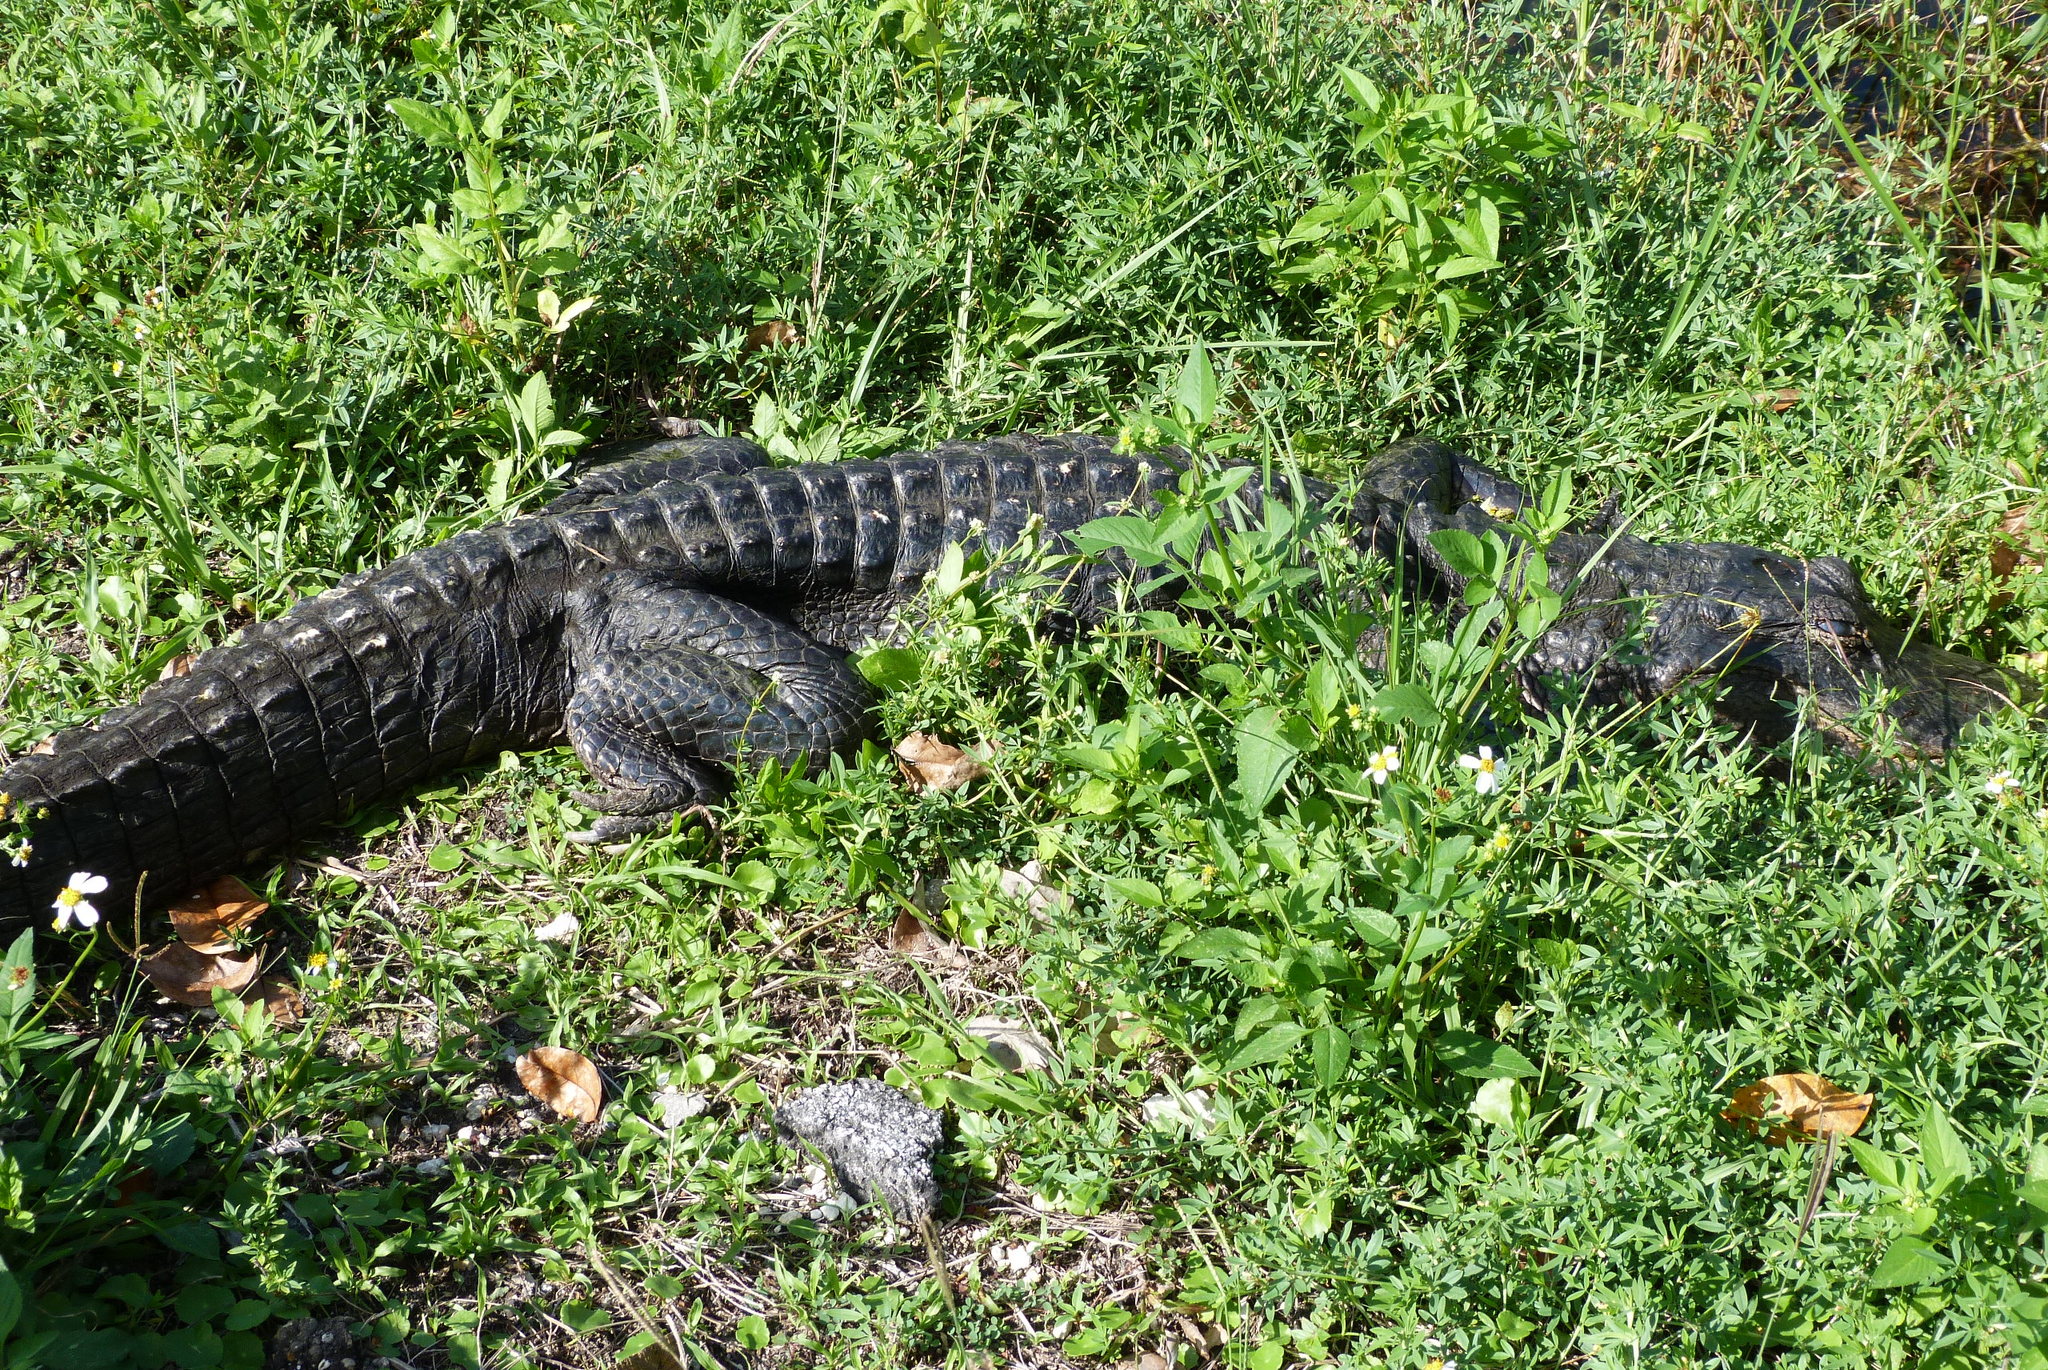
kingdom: Animalia
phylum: Chordata
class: Crocodylia
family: Alligatoridae
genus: Alligator
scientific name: Alligator mississippiensis
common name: American alligator
